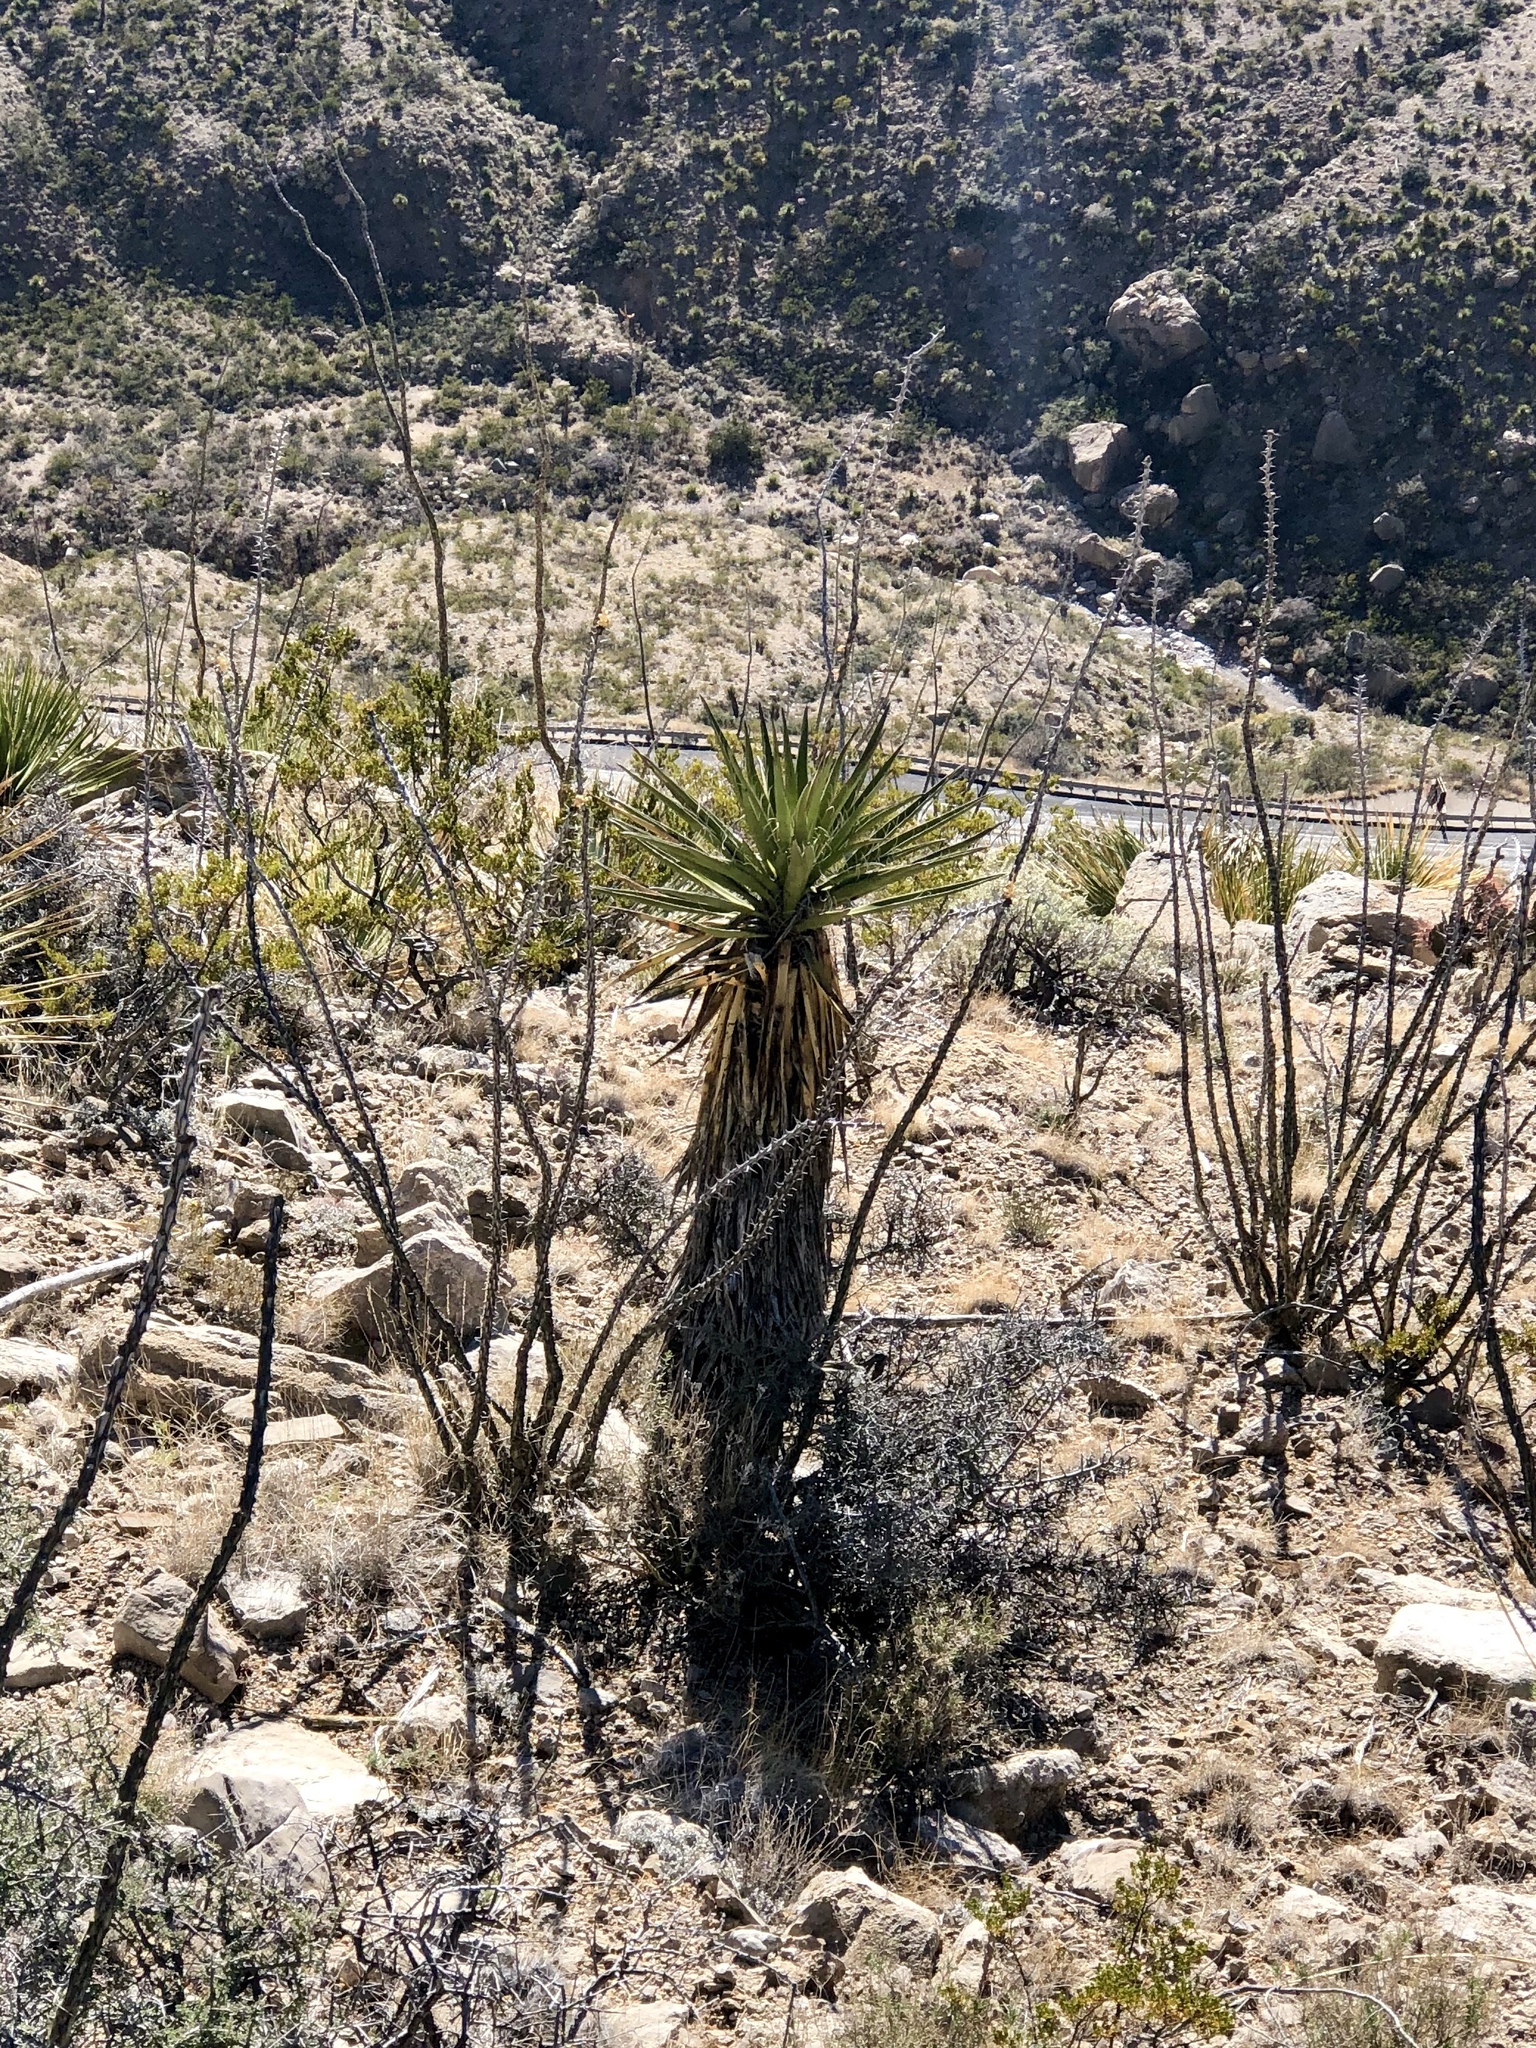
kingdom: Plantae
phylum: Tracheophyta
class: Liliopsida
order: Asparagales
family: Asparagaceae
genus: Yucca
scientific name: Yucca treculiana
